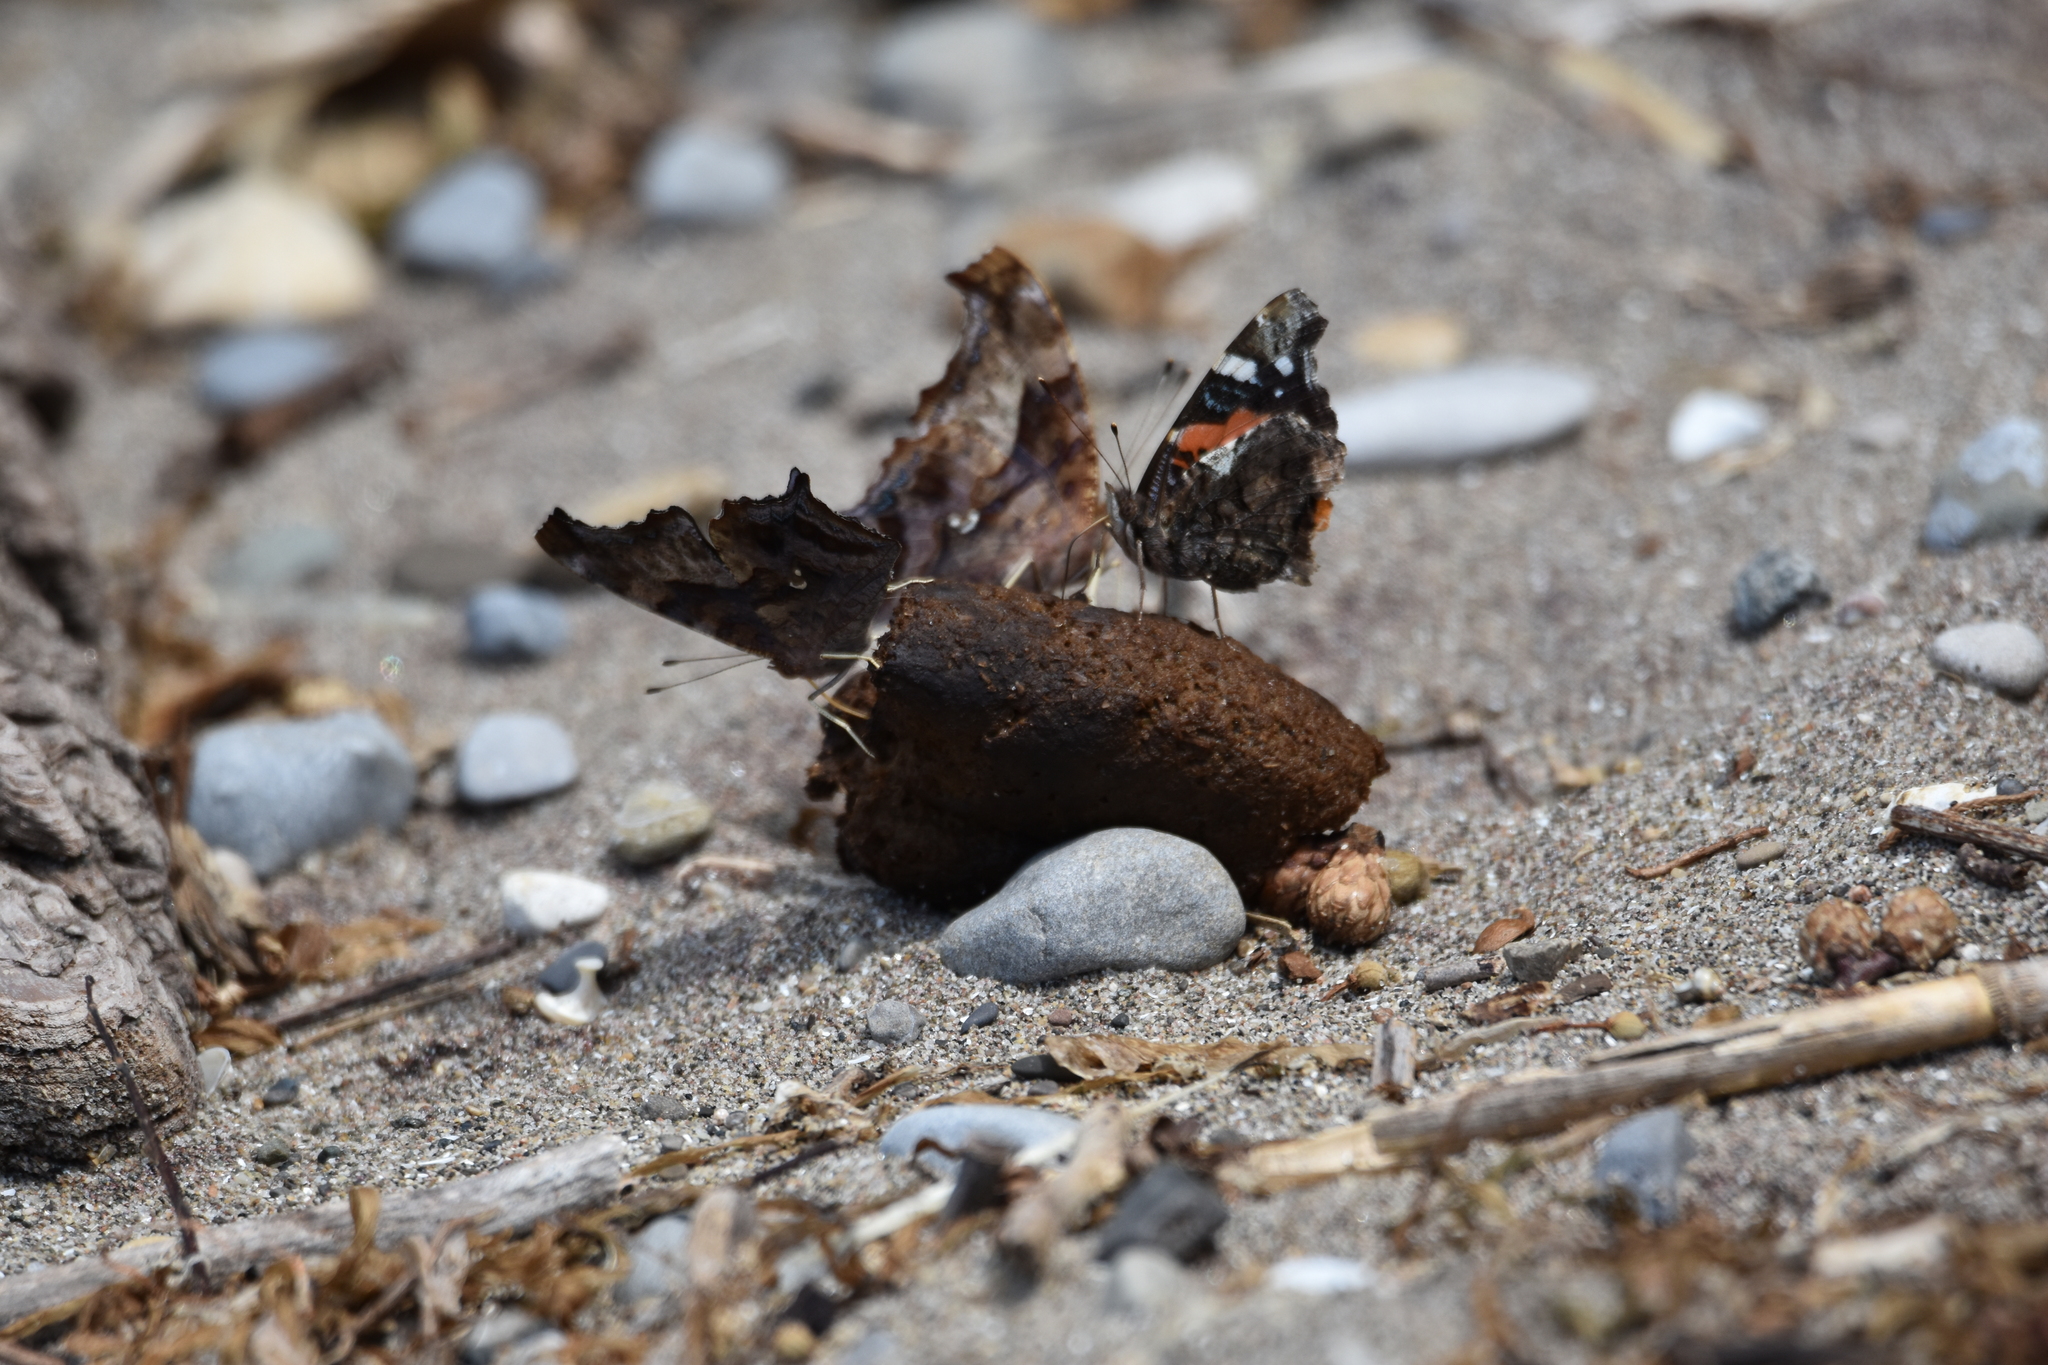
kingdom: Animalia
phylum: Arthropoda
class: Insecta
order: Lepidoptera
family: Nymphalidae
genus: Vanessa
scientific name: Vanessa atalanta
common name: Red admiral
